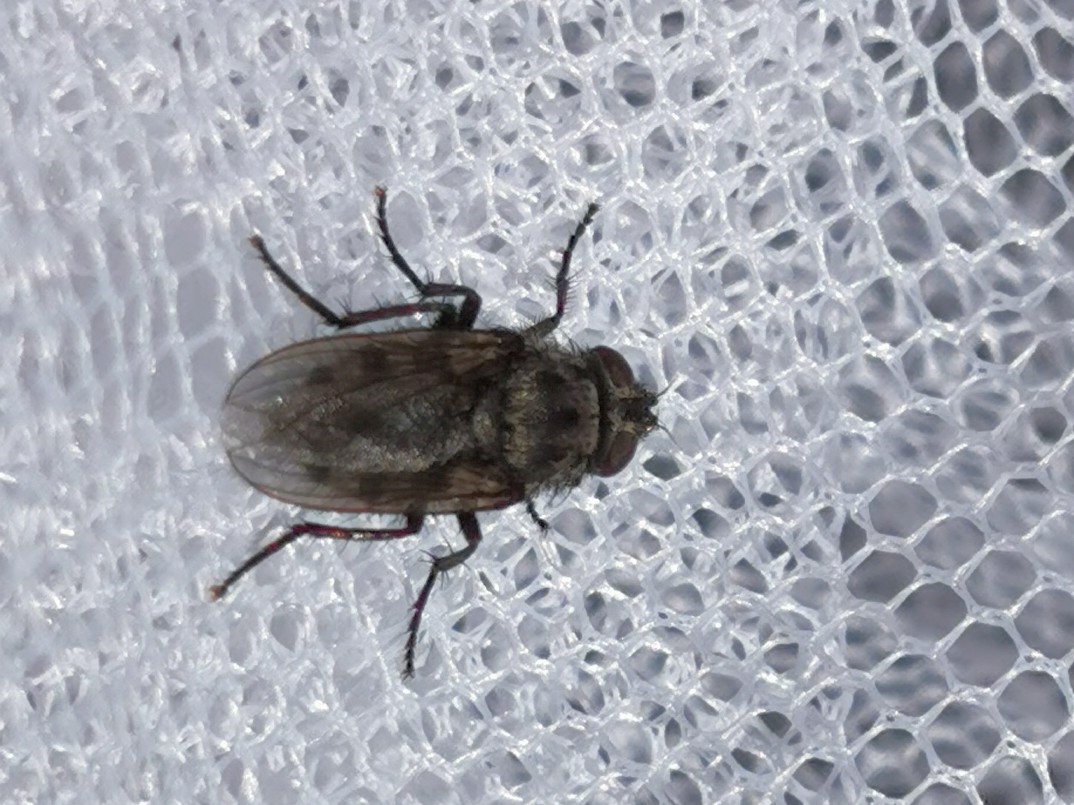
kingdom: Animalia
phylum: Arthropoda
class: Insecta
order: Diptera
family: Polleniidae
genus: Pollenia
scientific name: Pollenia vagabunda
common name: Vagabund cluster fly
